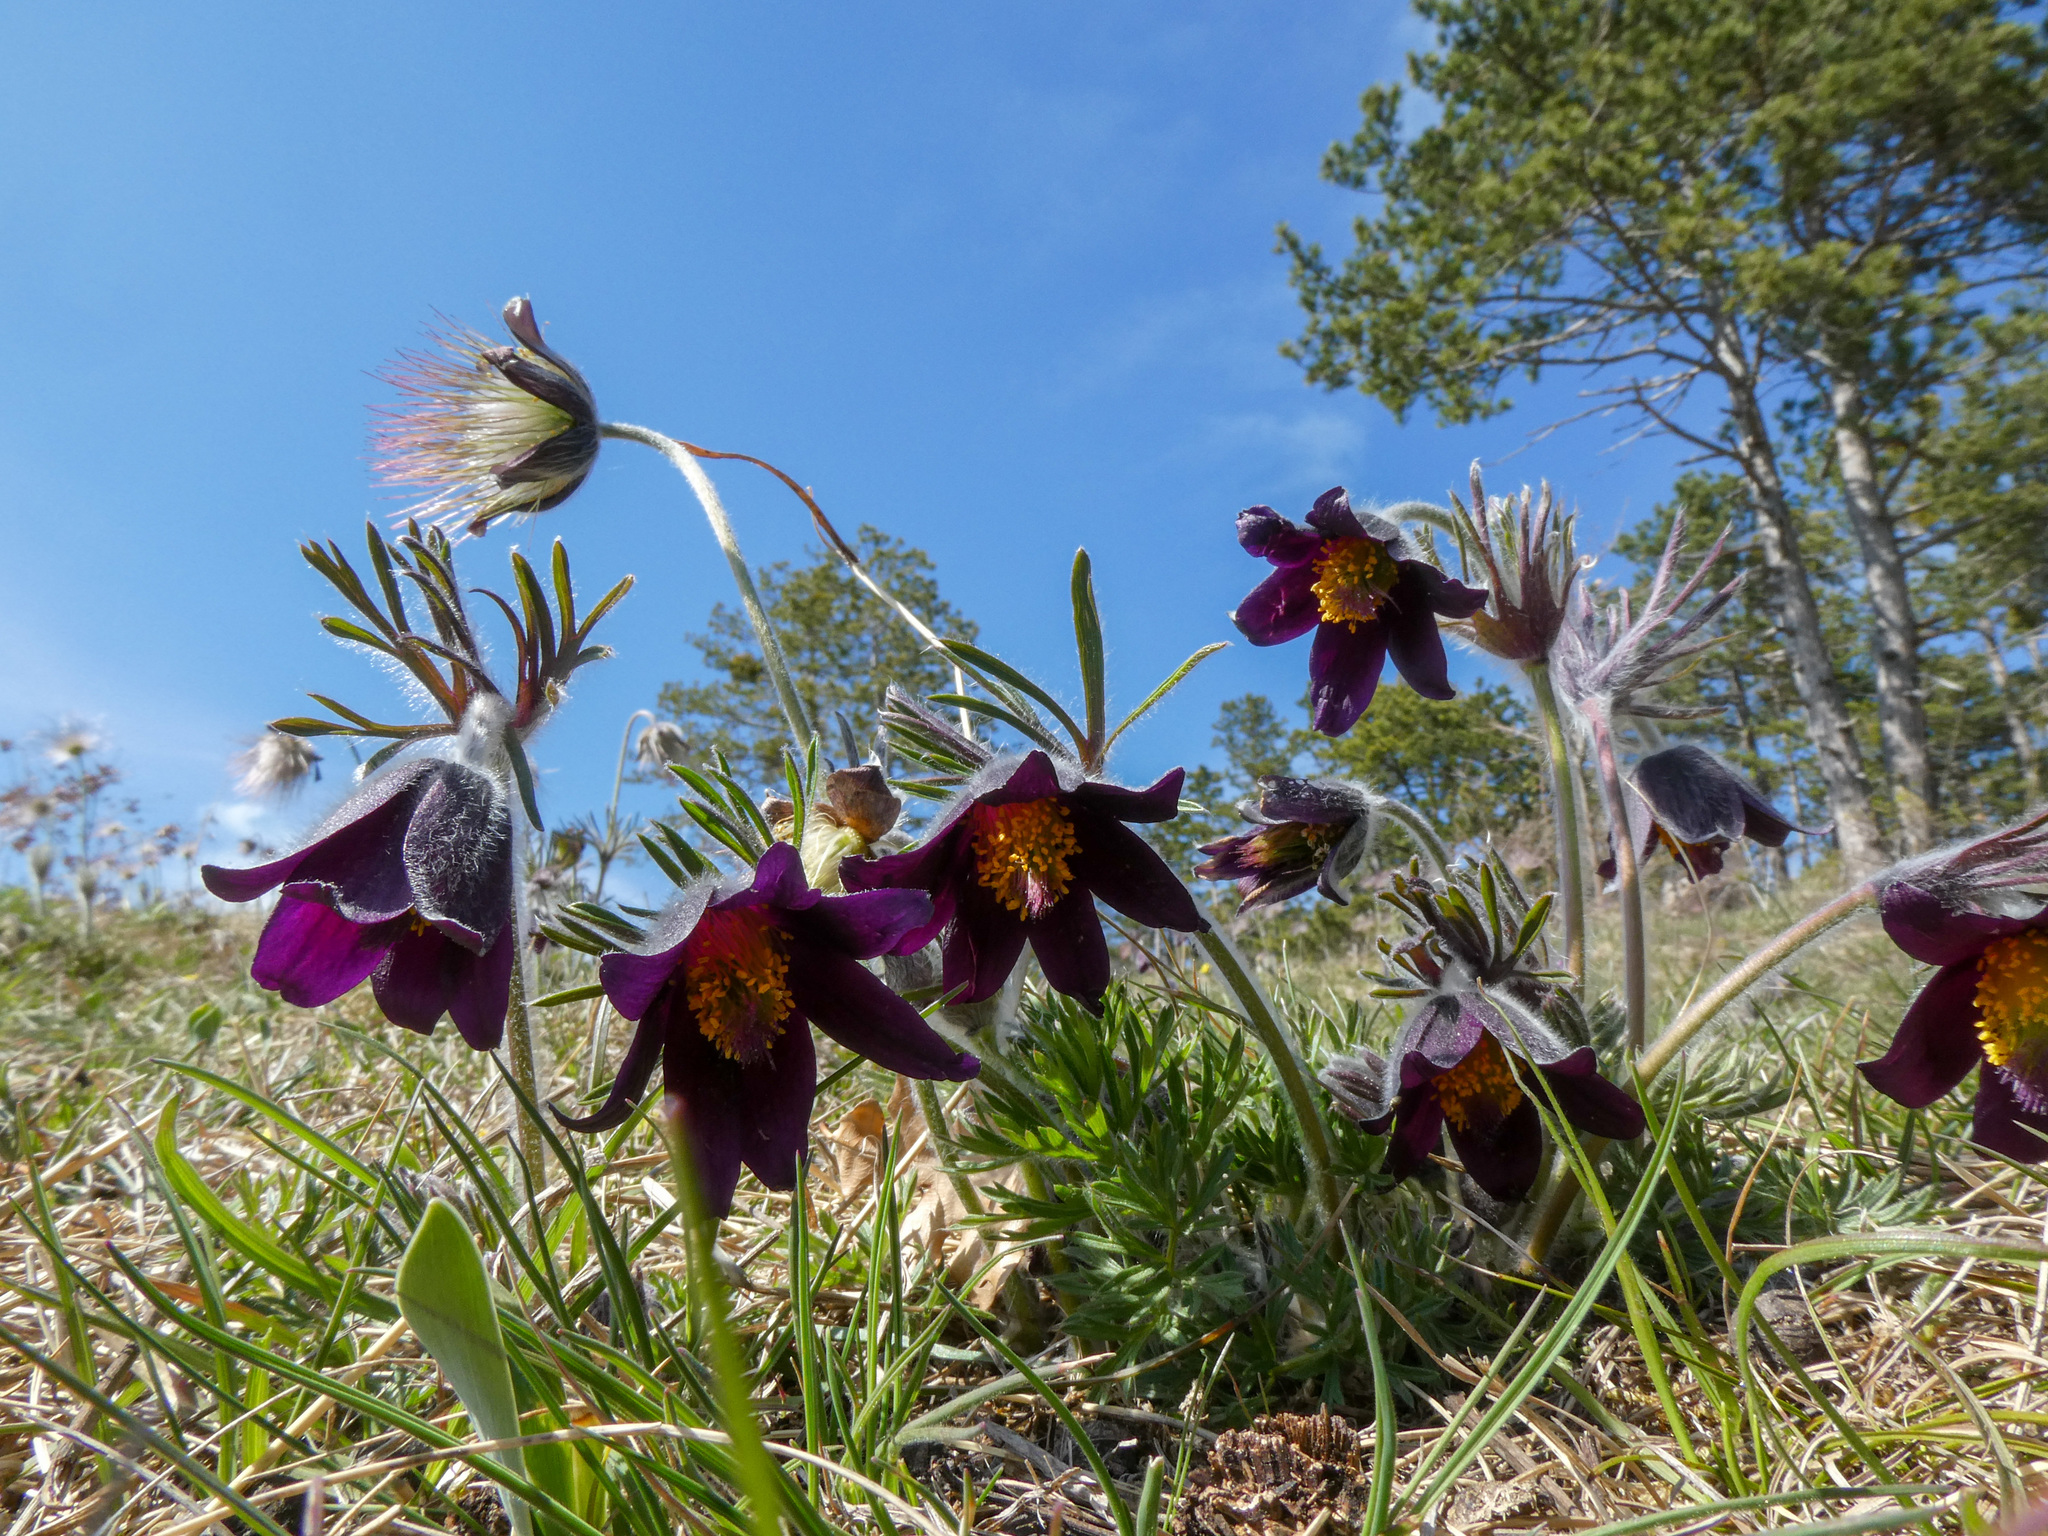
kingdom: Plantae
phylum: Tracheophyta
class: Magnoliopsida
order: Ranunculales
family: Ranunculaceae
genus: Pulsatilla
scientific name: Pulsatilla pratensis
